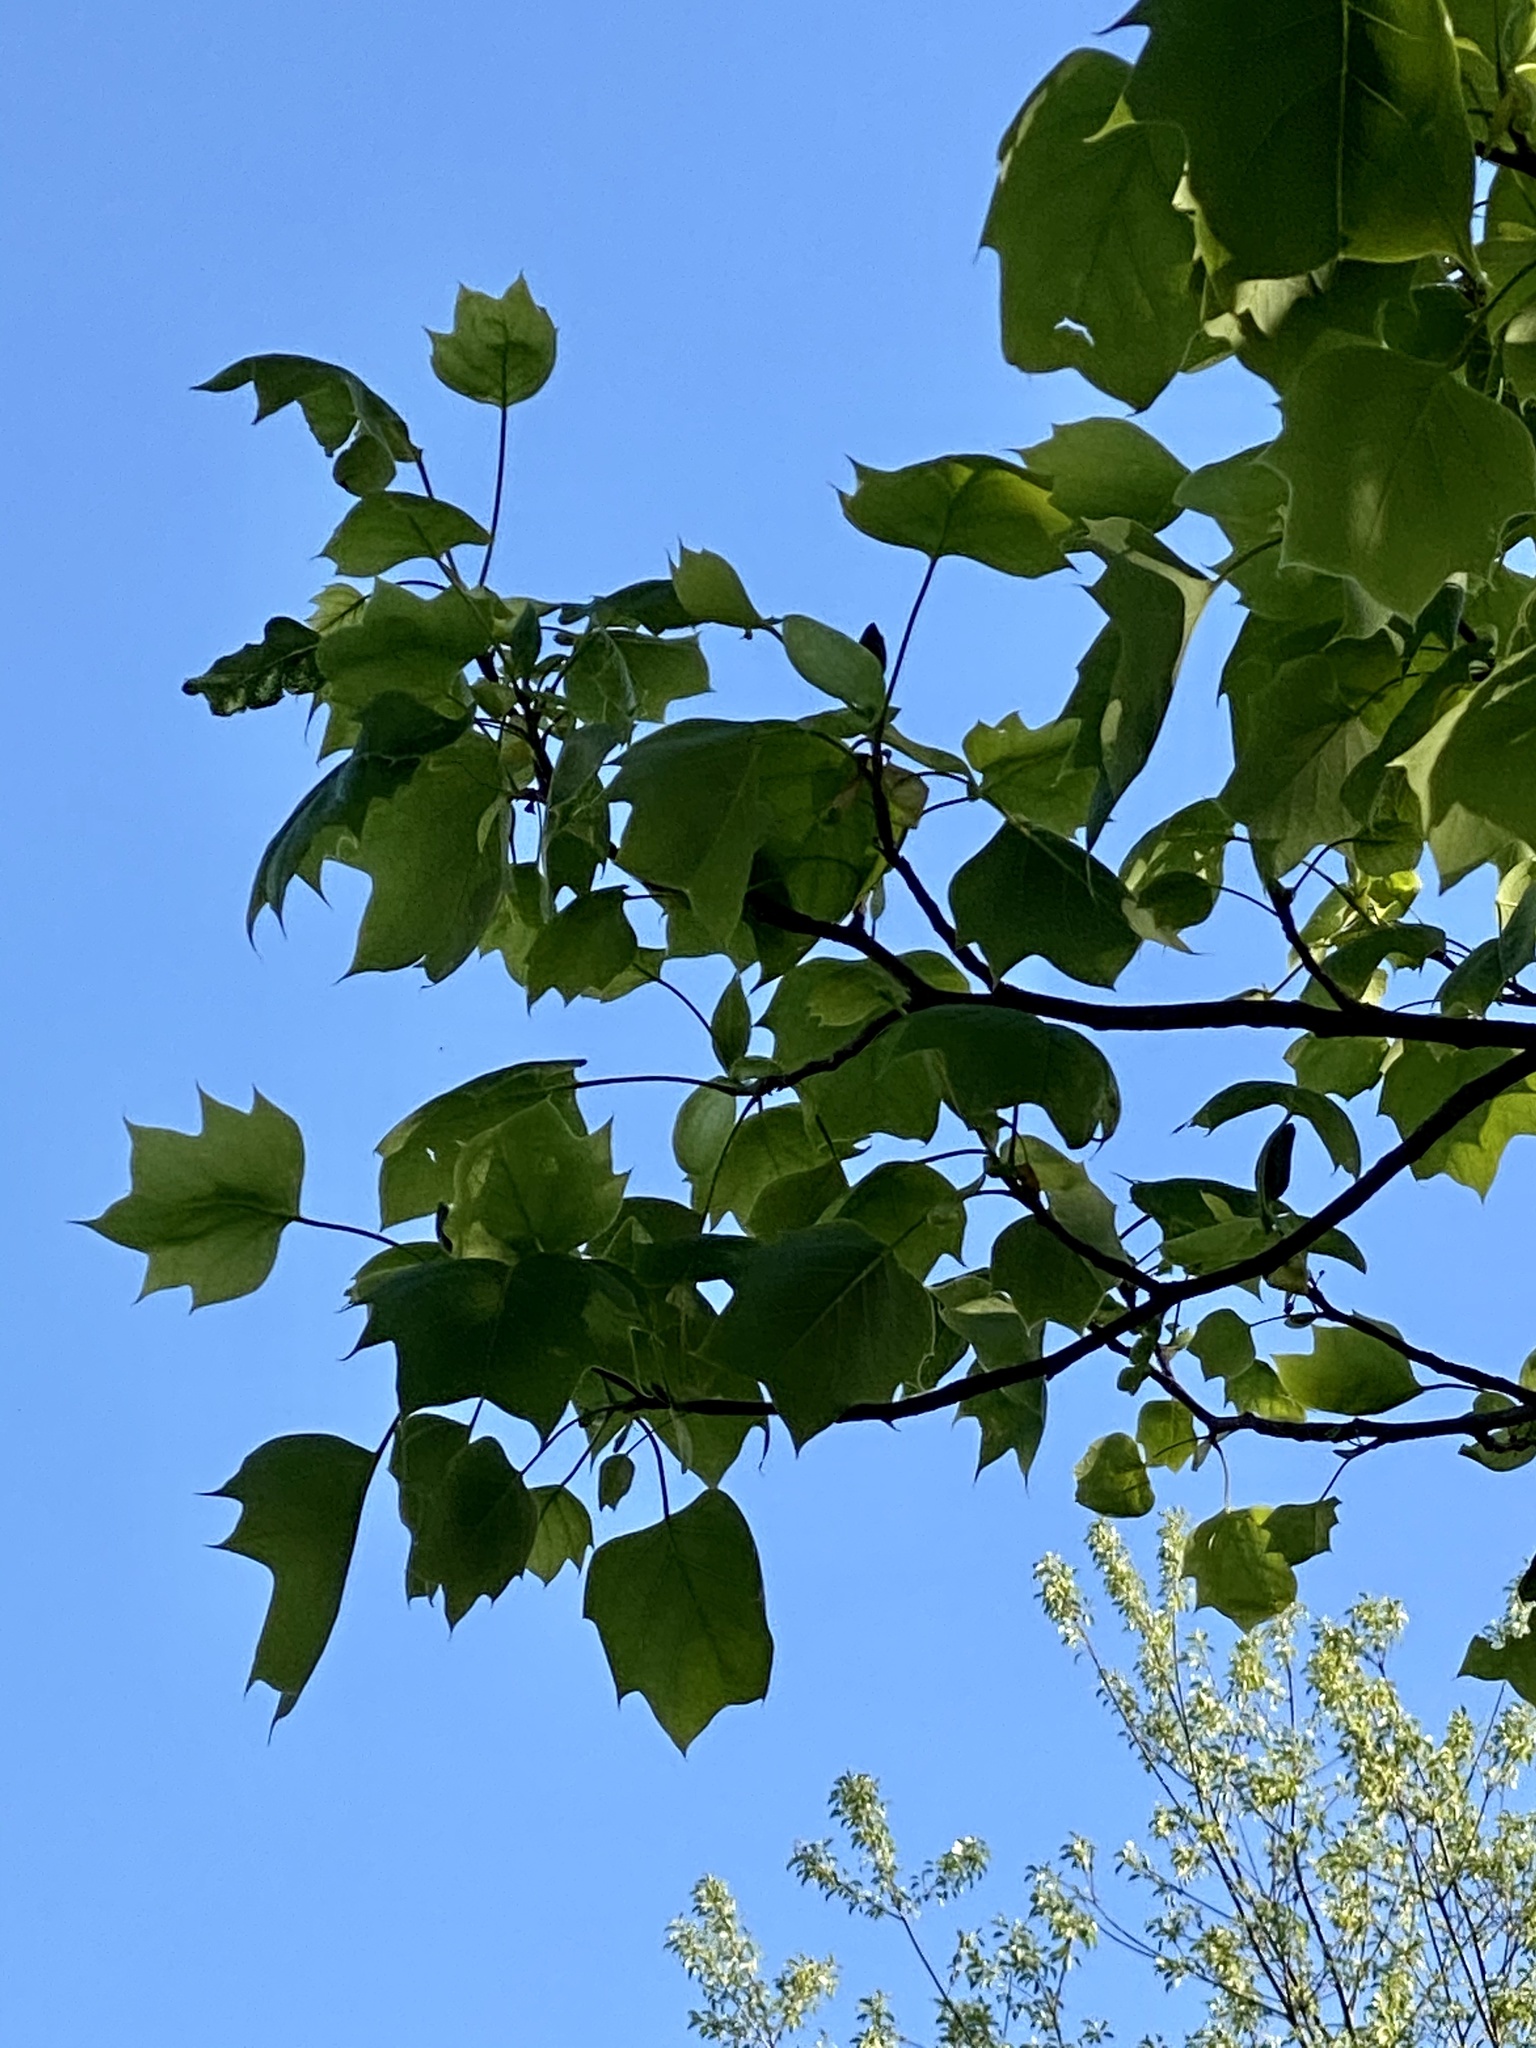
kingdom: Plantae
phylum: Tracheophyta
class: Magnoliopsida
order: Magnoliales
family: Magnoliaceae
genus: Liriodendron
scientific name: Liriodendron tulipifera
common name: Tulip tree
